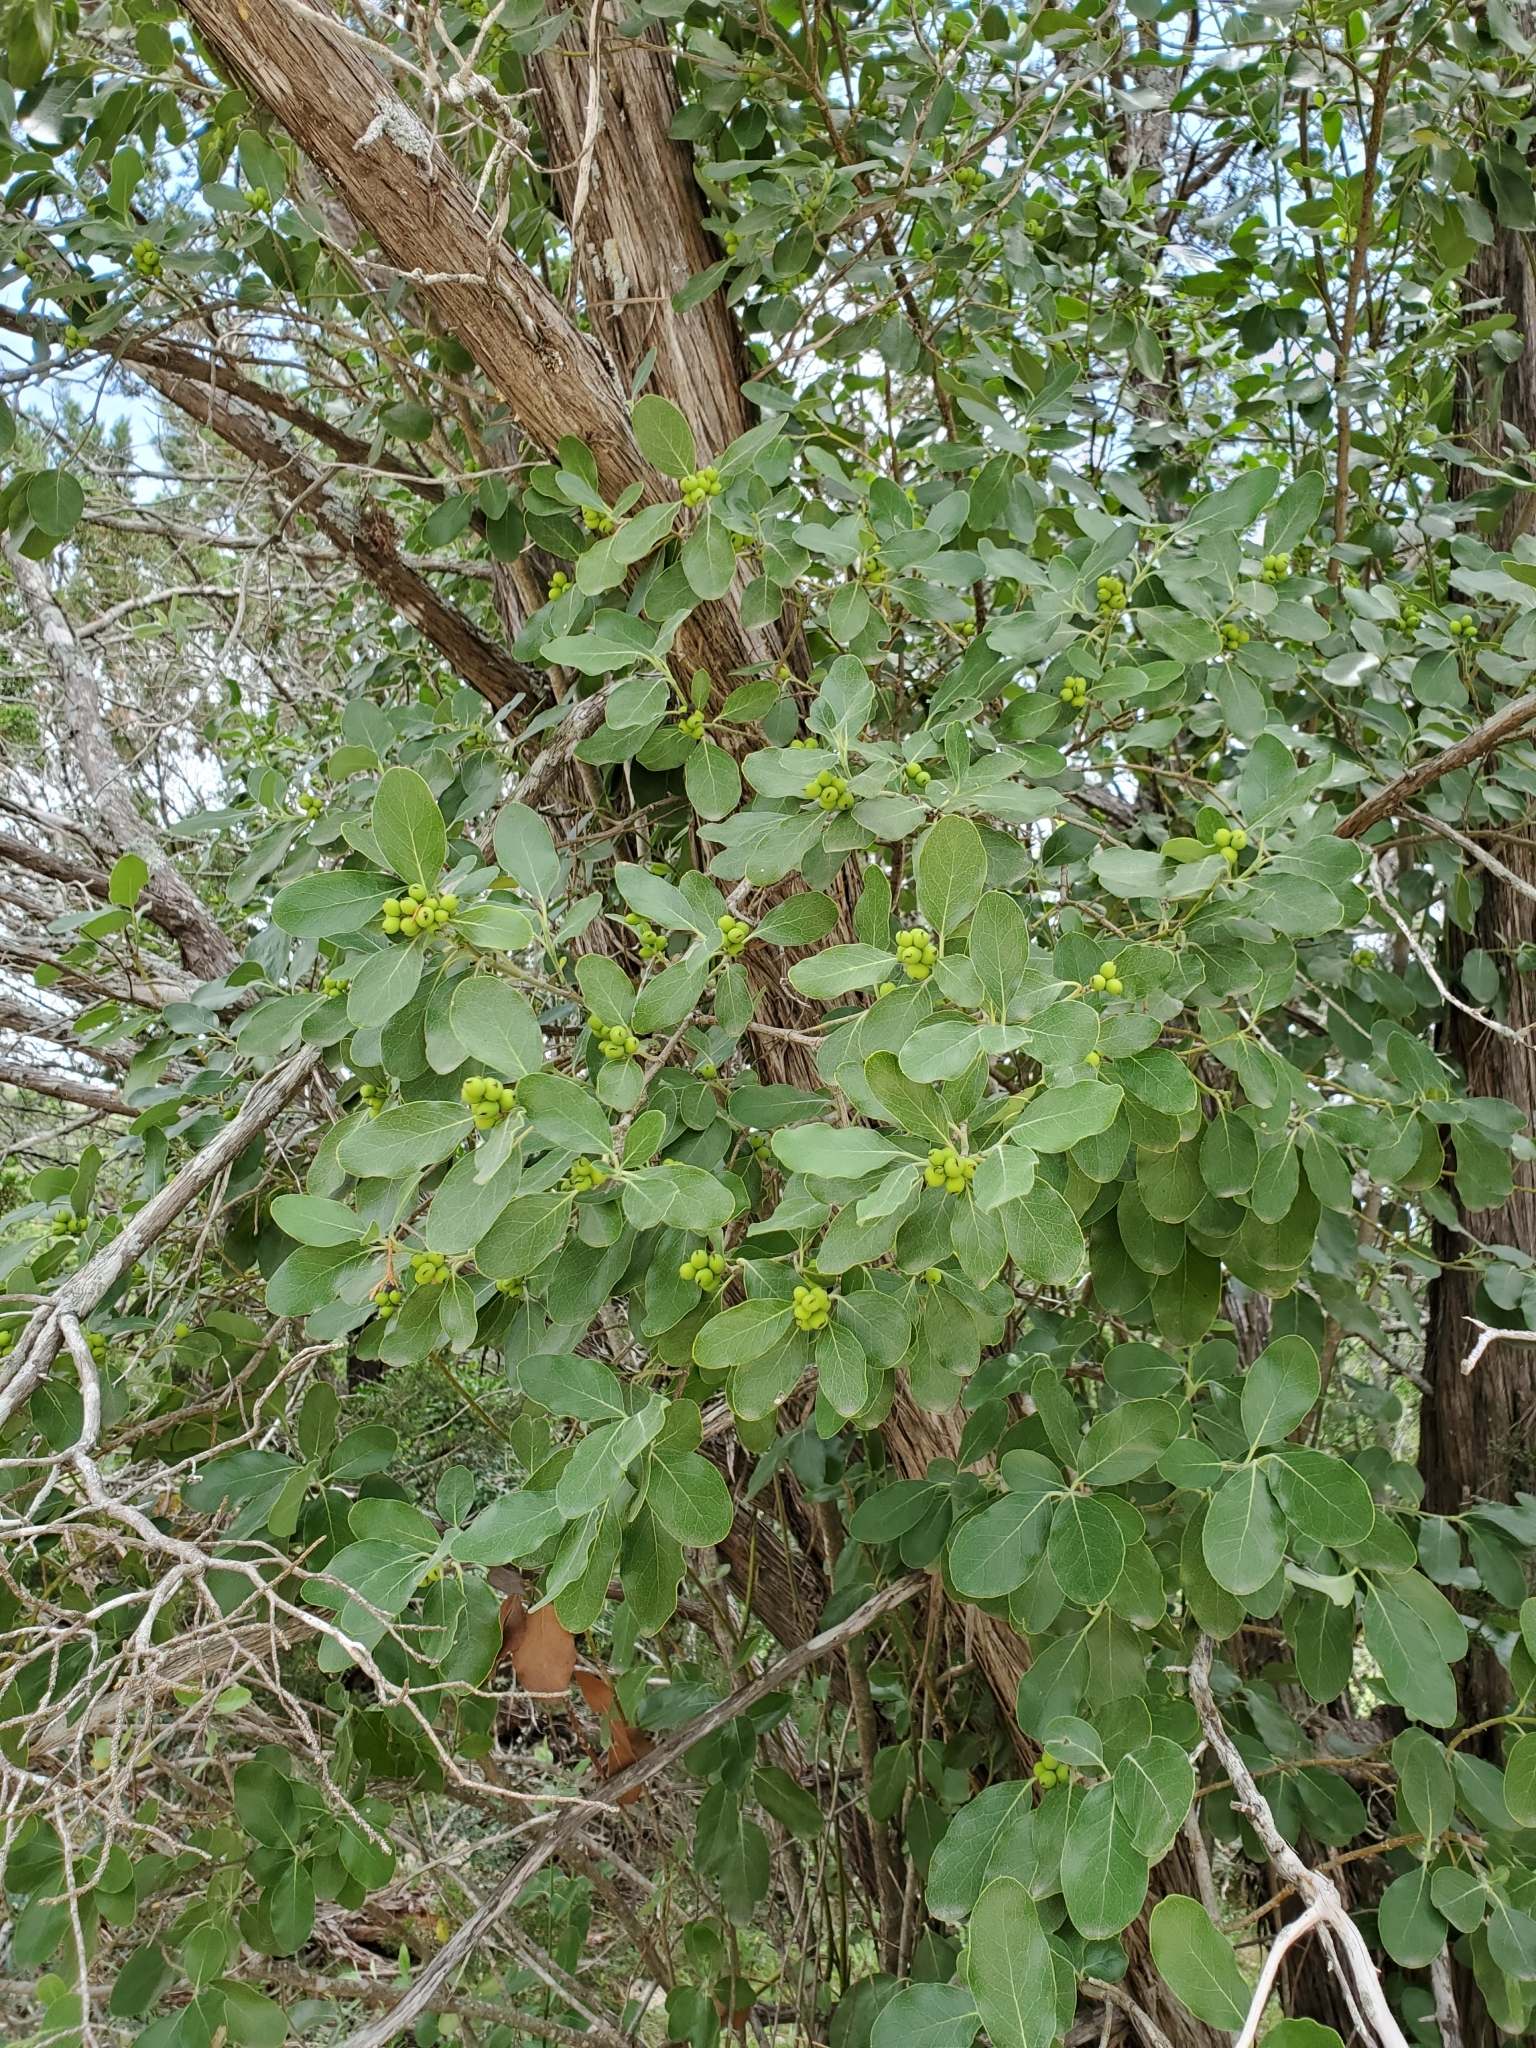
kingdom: Plantae
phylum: Tracheophyta
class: Magnoliopsida
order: Garryales
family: Garryaceae
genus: Garrya
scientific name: Garrya lindheimeri
